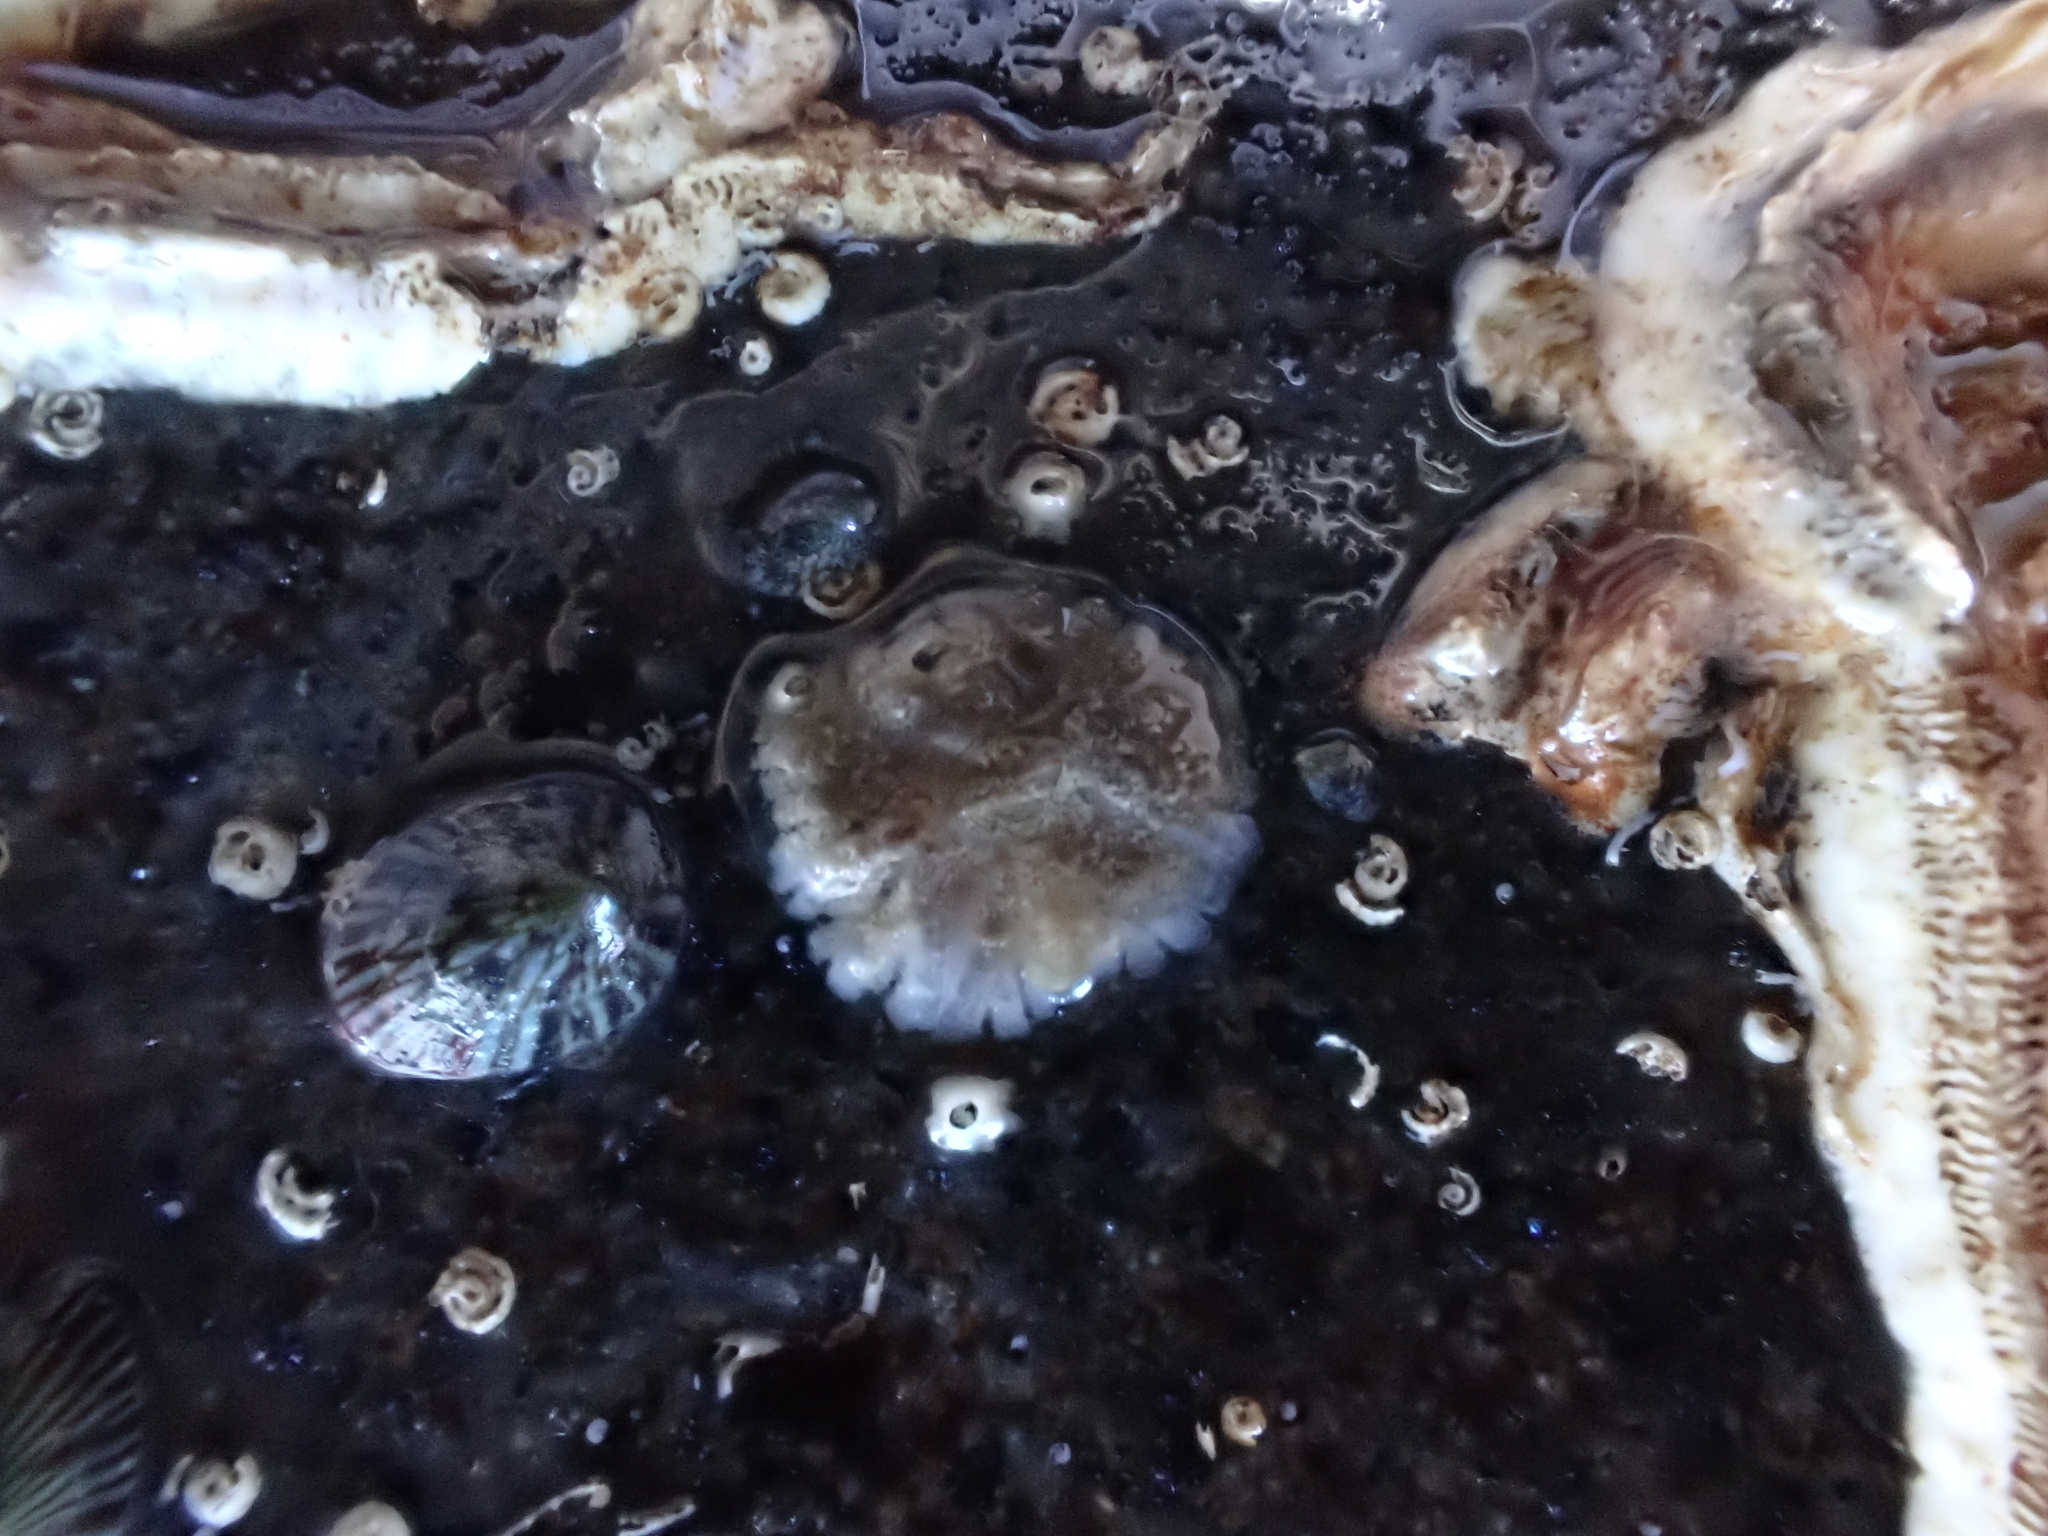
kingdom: Animalia
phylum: Arthropoda
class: Maxillopoda
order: Sessilia
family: Tetraclitidae
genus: Tetraclitella
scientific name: Tetraclitella depressa
